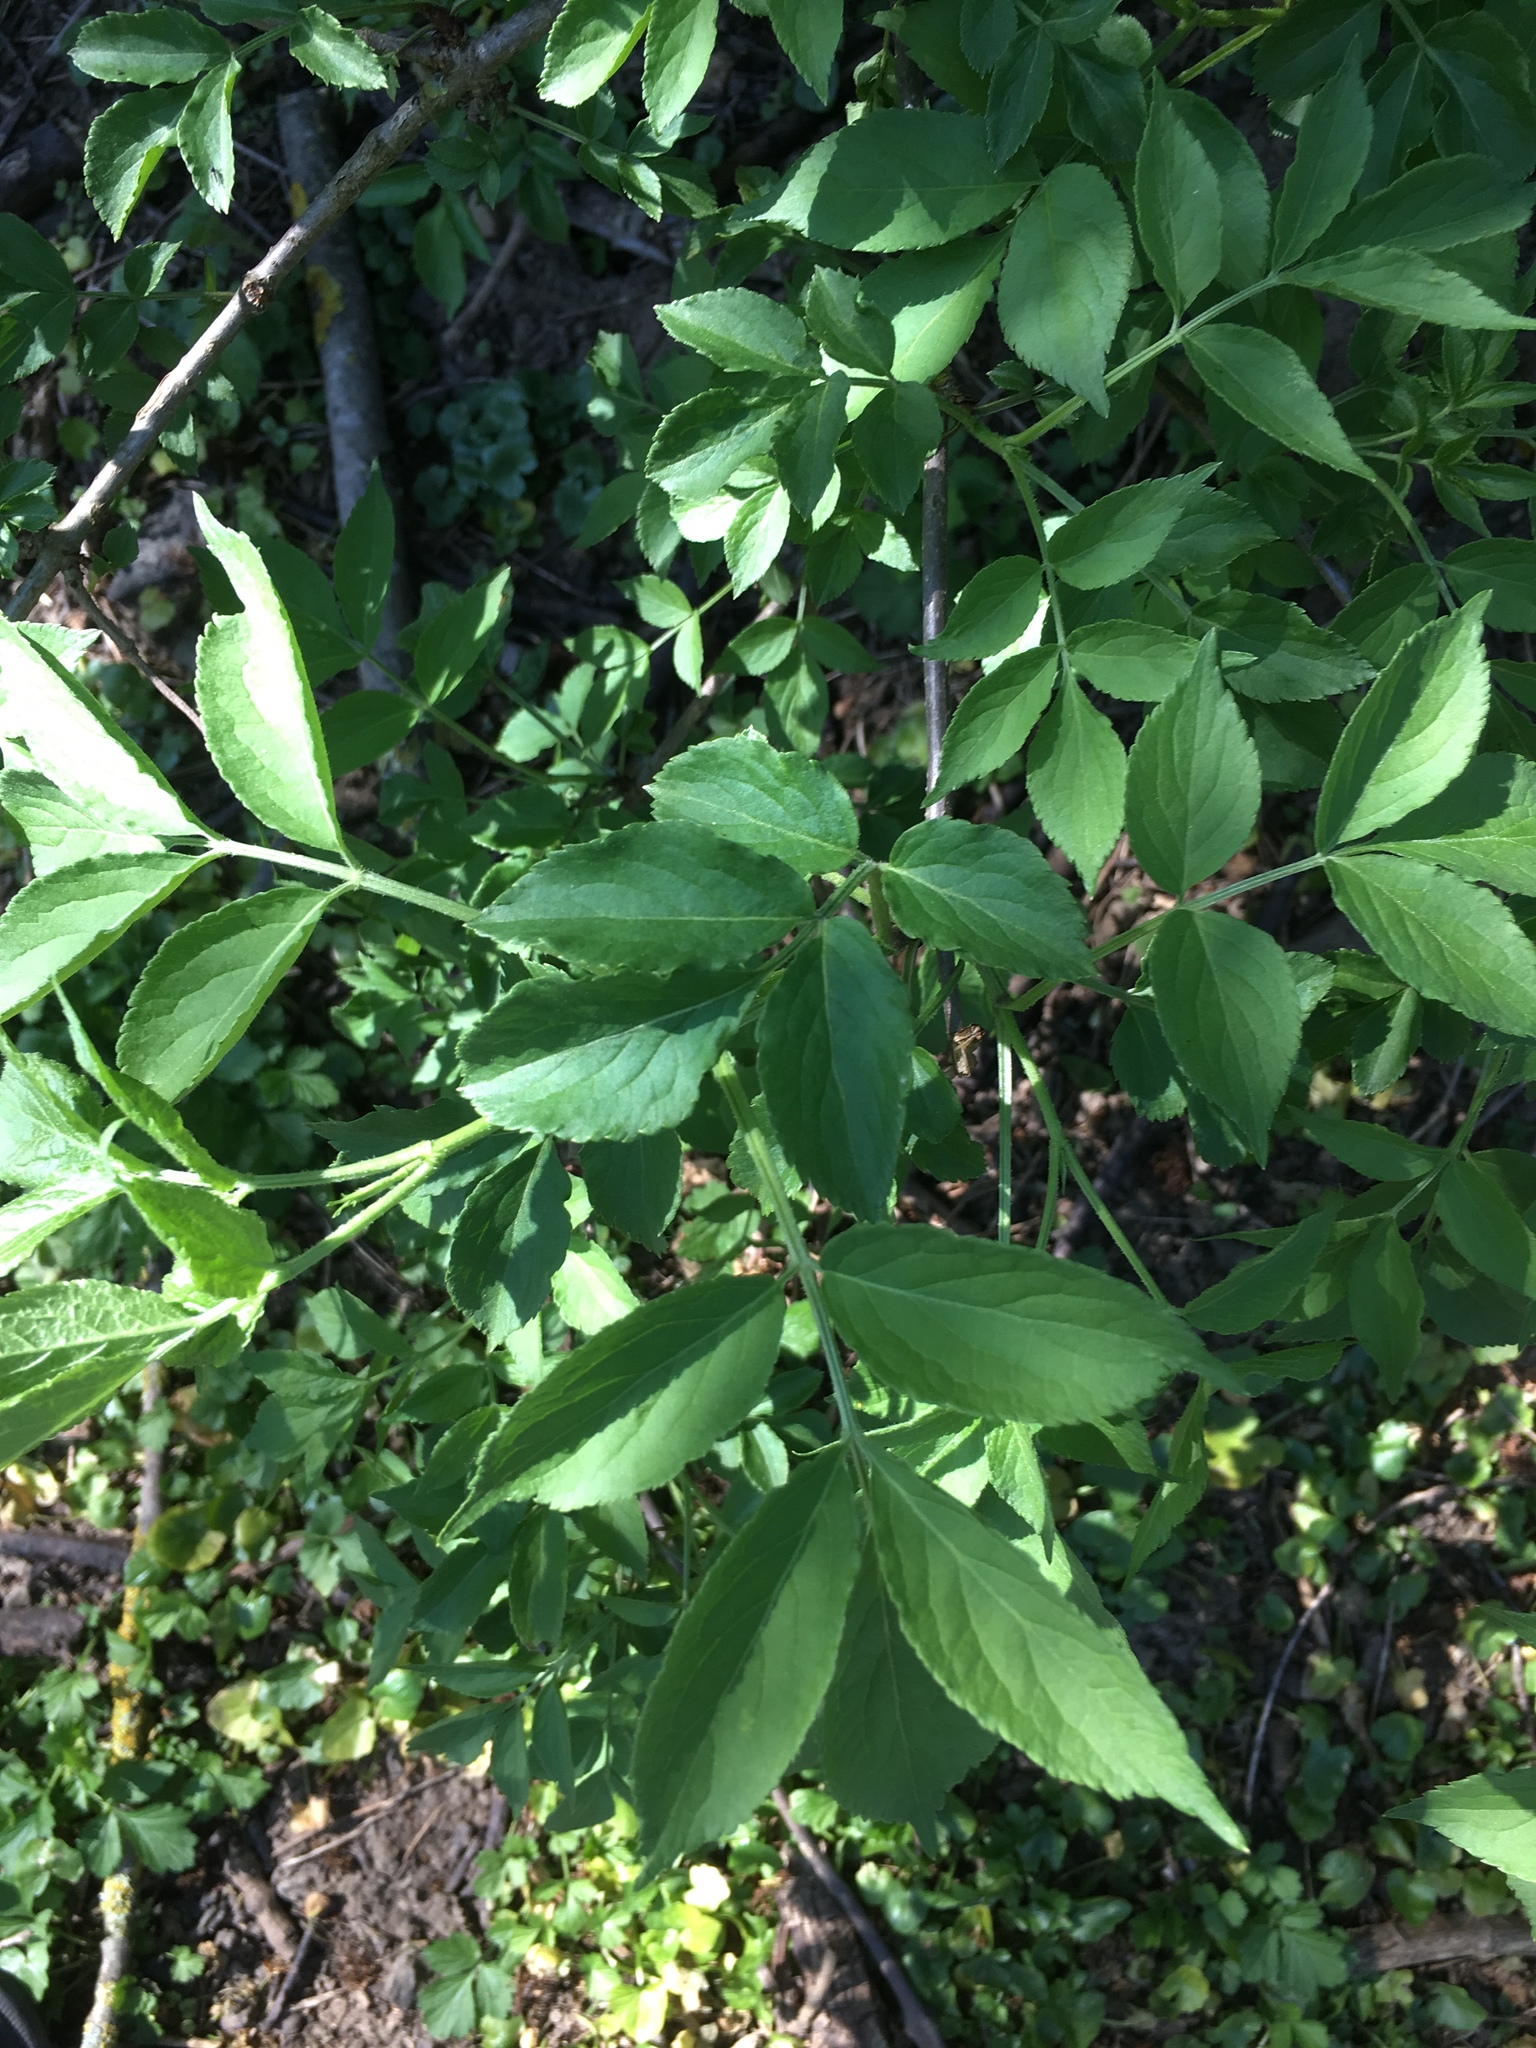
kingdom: Plantae
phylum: Tracheophyta
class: Magnoliopsida
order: Dipsacales
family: Viburnaceae
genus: Sambucus
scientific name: Sambucus nigra
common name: Elder
